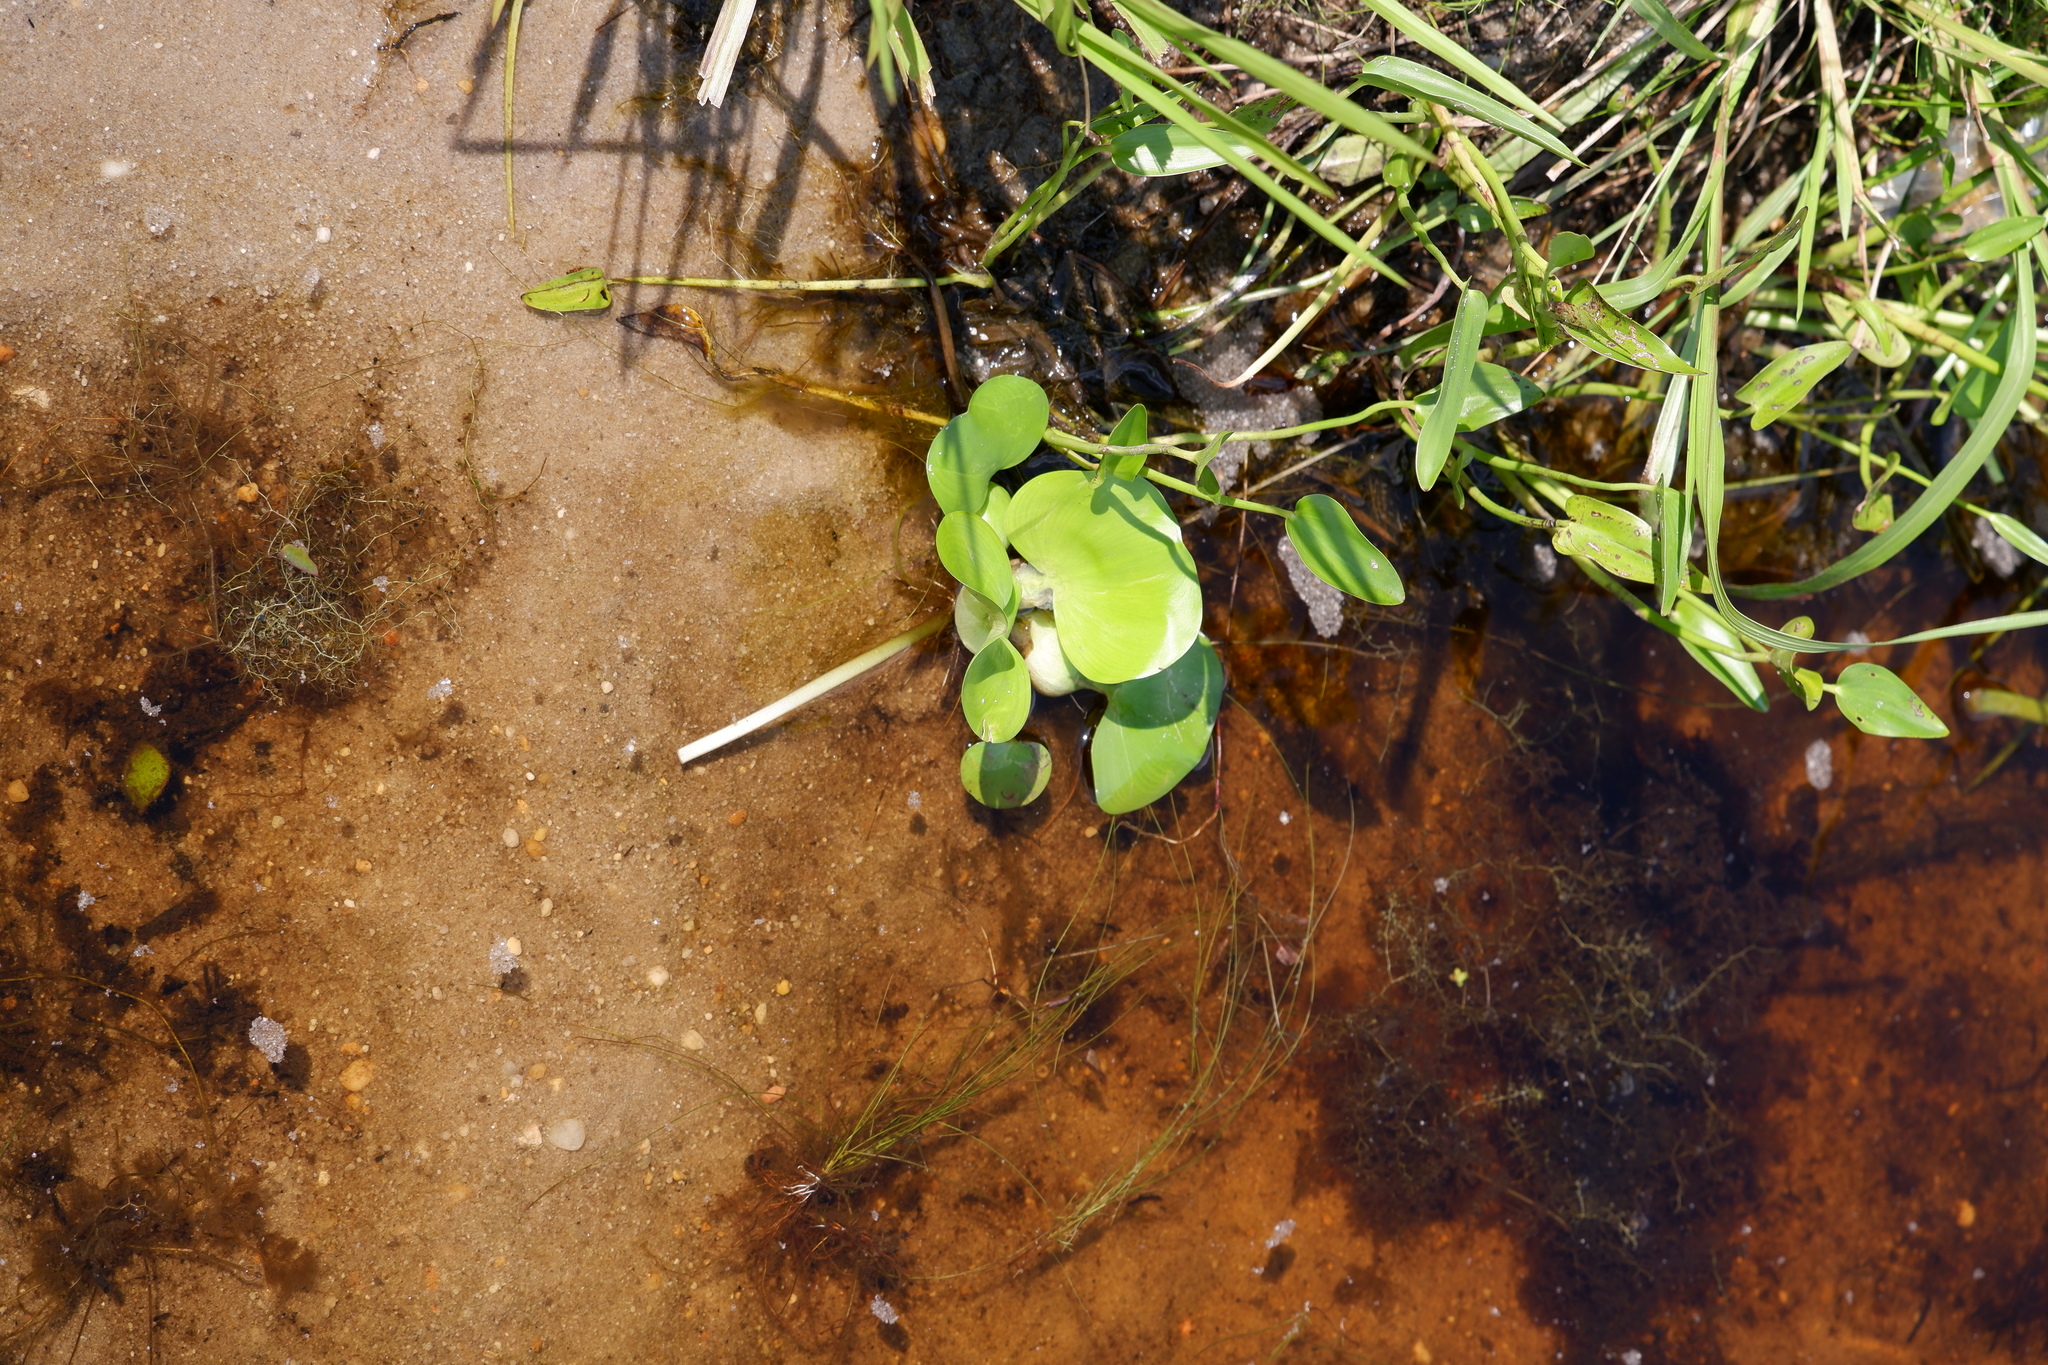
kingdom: Plantae
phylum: Tracheophyta
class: Liliopsida
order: Commelinales
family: Pontederiaceae
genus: Pontederia
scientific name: Pontederia crassipes
